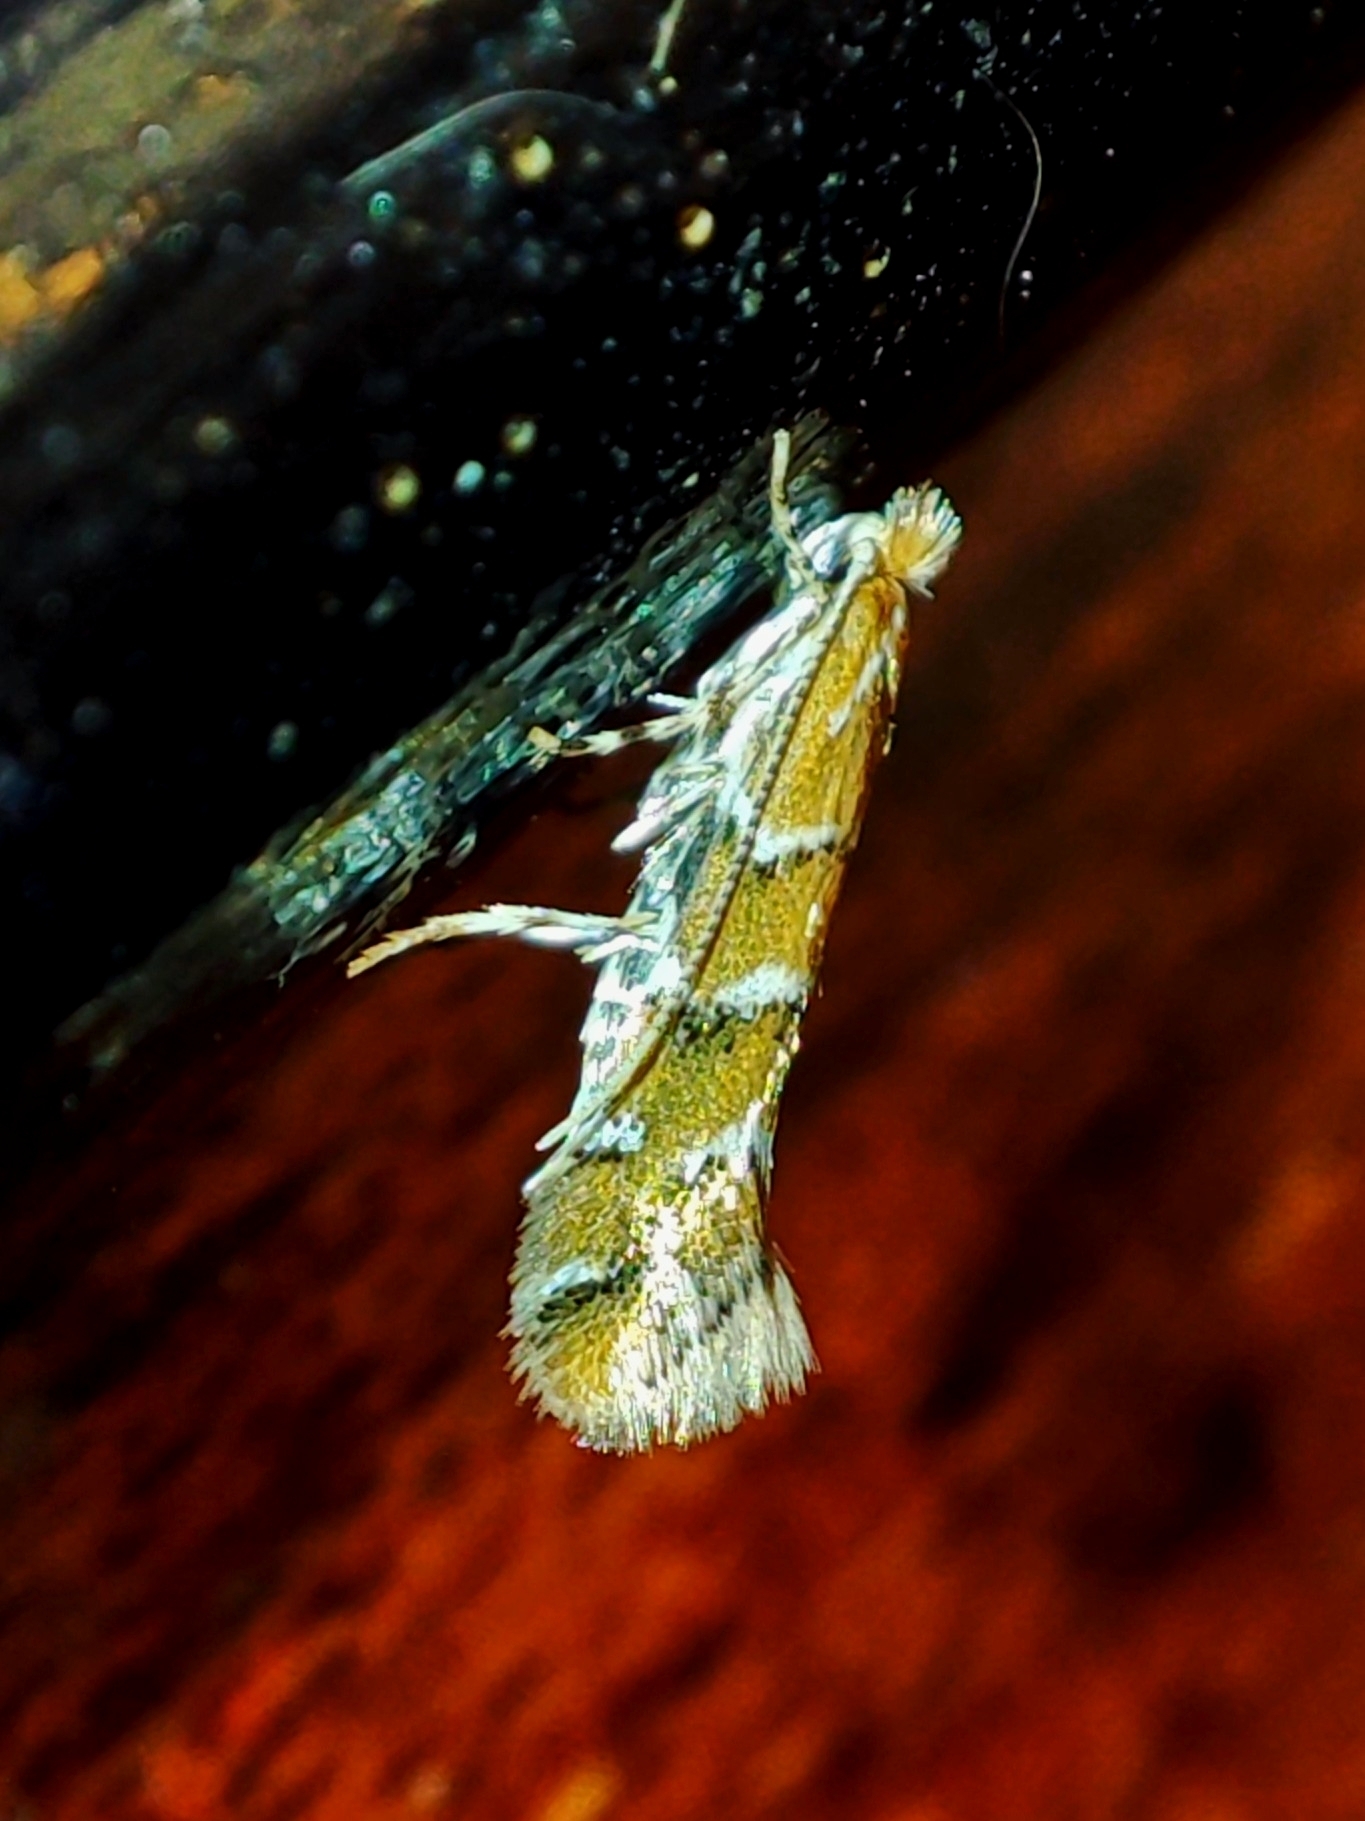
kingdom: Animalia
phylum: Arthropoda
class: Insecta
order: Lepidoptera
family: Gracillariidae
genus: Cameraria
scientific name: Cameraria ohridella
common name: Horse-chestnut leaf-miner
